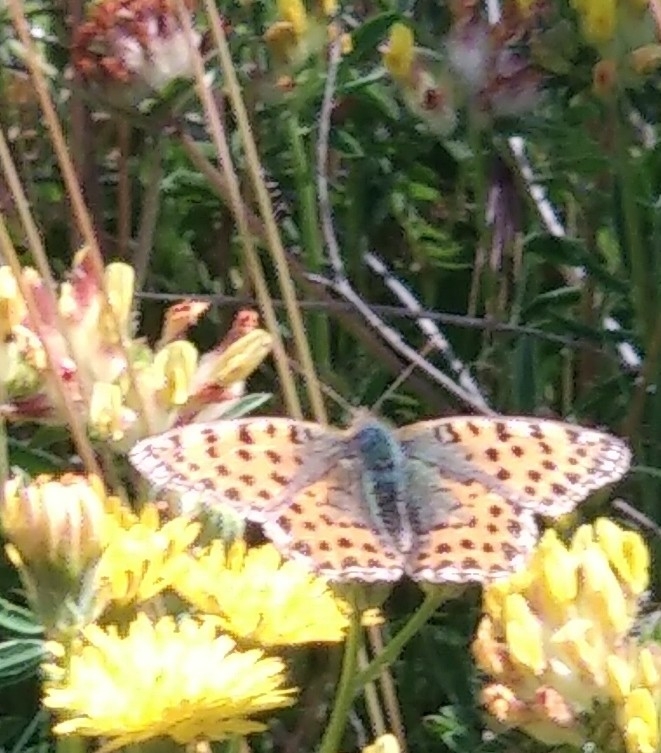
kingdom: Animalia
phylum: Arthropoda
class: Insecta
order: Lepidoptera
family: Nymphalidae
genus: Issoria
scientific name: Issoria lathonia
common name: Queen of spain fritillary
